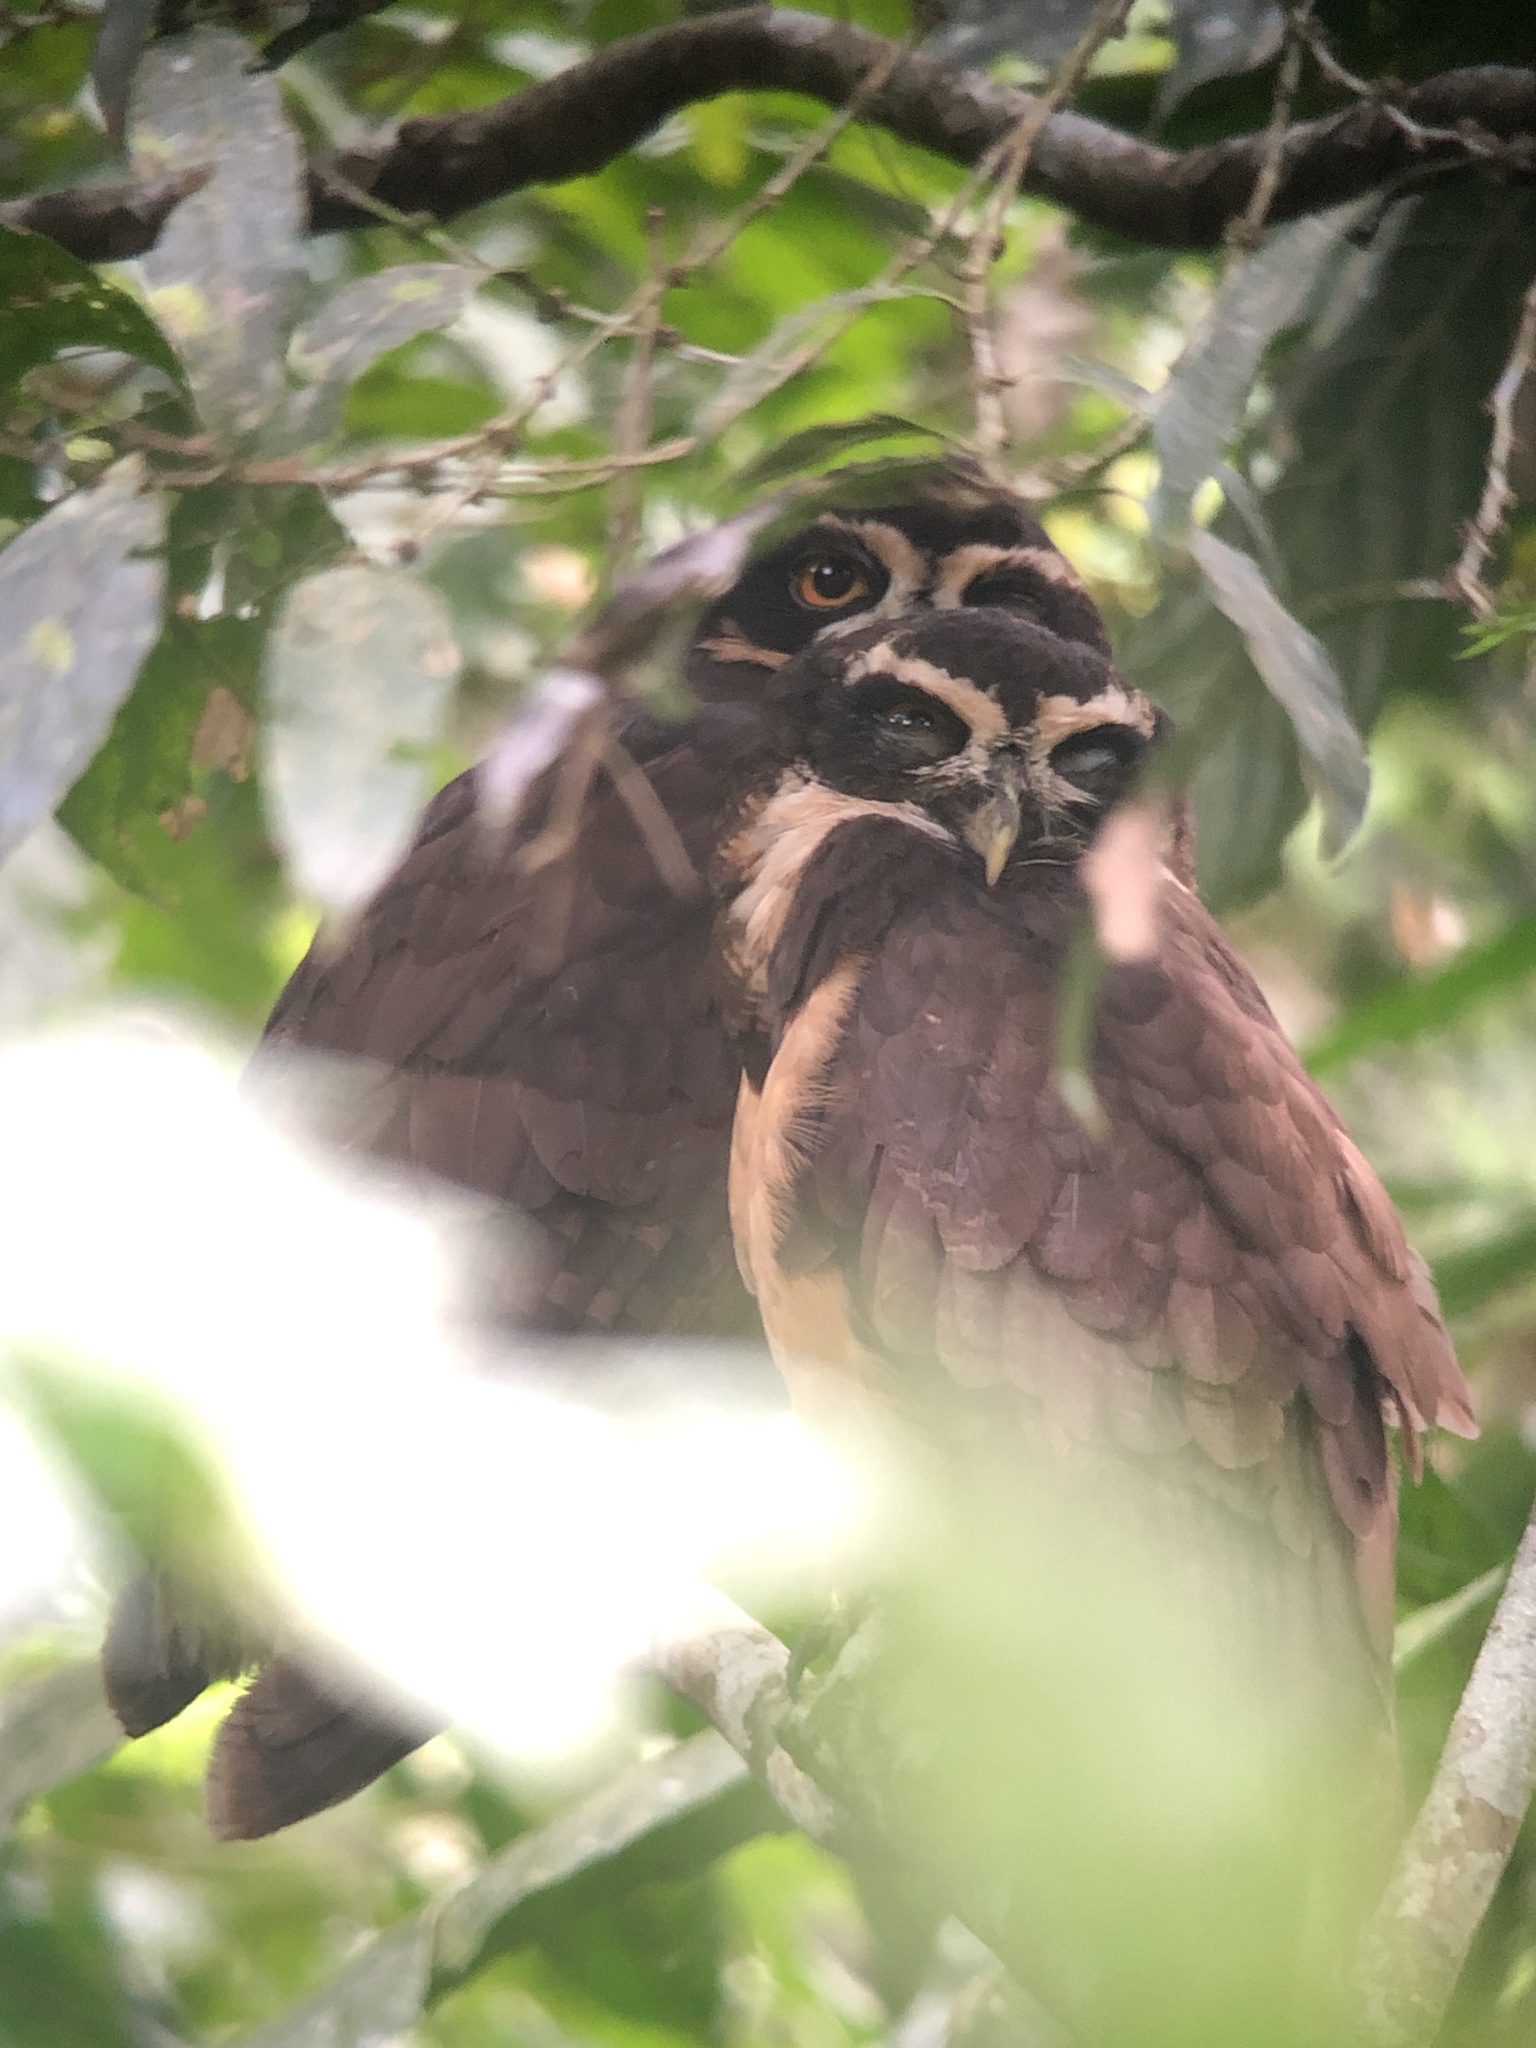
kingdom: Animalia
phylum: Chordata
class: Aves
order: Strigiformes
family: Strigidae
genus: Pulsatrix
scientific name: Pulsatrix perspicillata
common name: Spectacled owl
